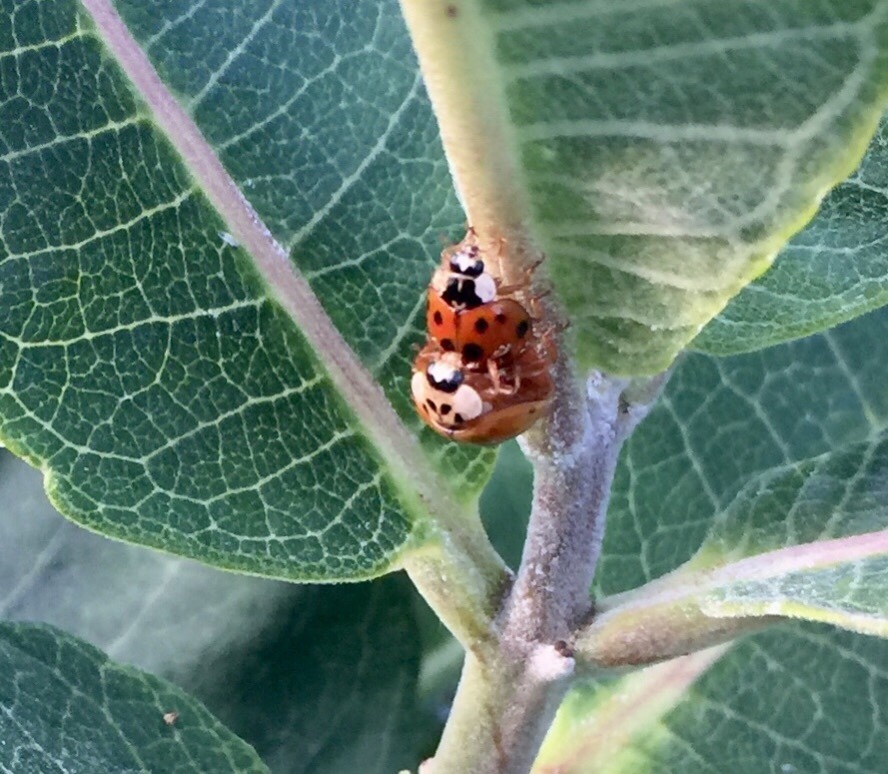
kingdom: Animalia
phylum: Arthropoda
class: Insecta
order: Coleoptera
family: Coccinellidae
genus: Harmonia
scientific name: Harmonia axyridis
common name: Harlequin ladybird
